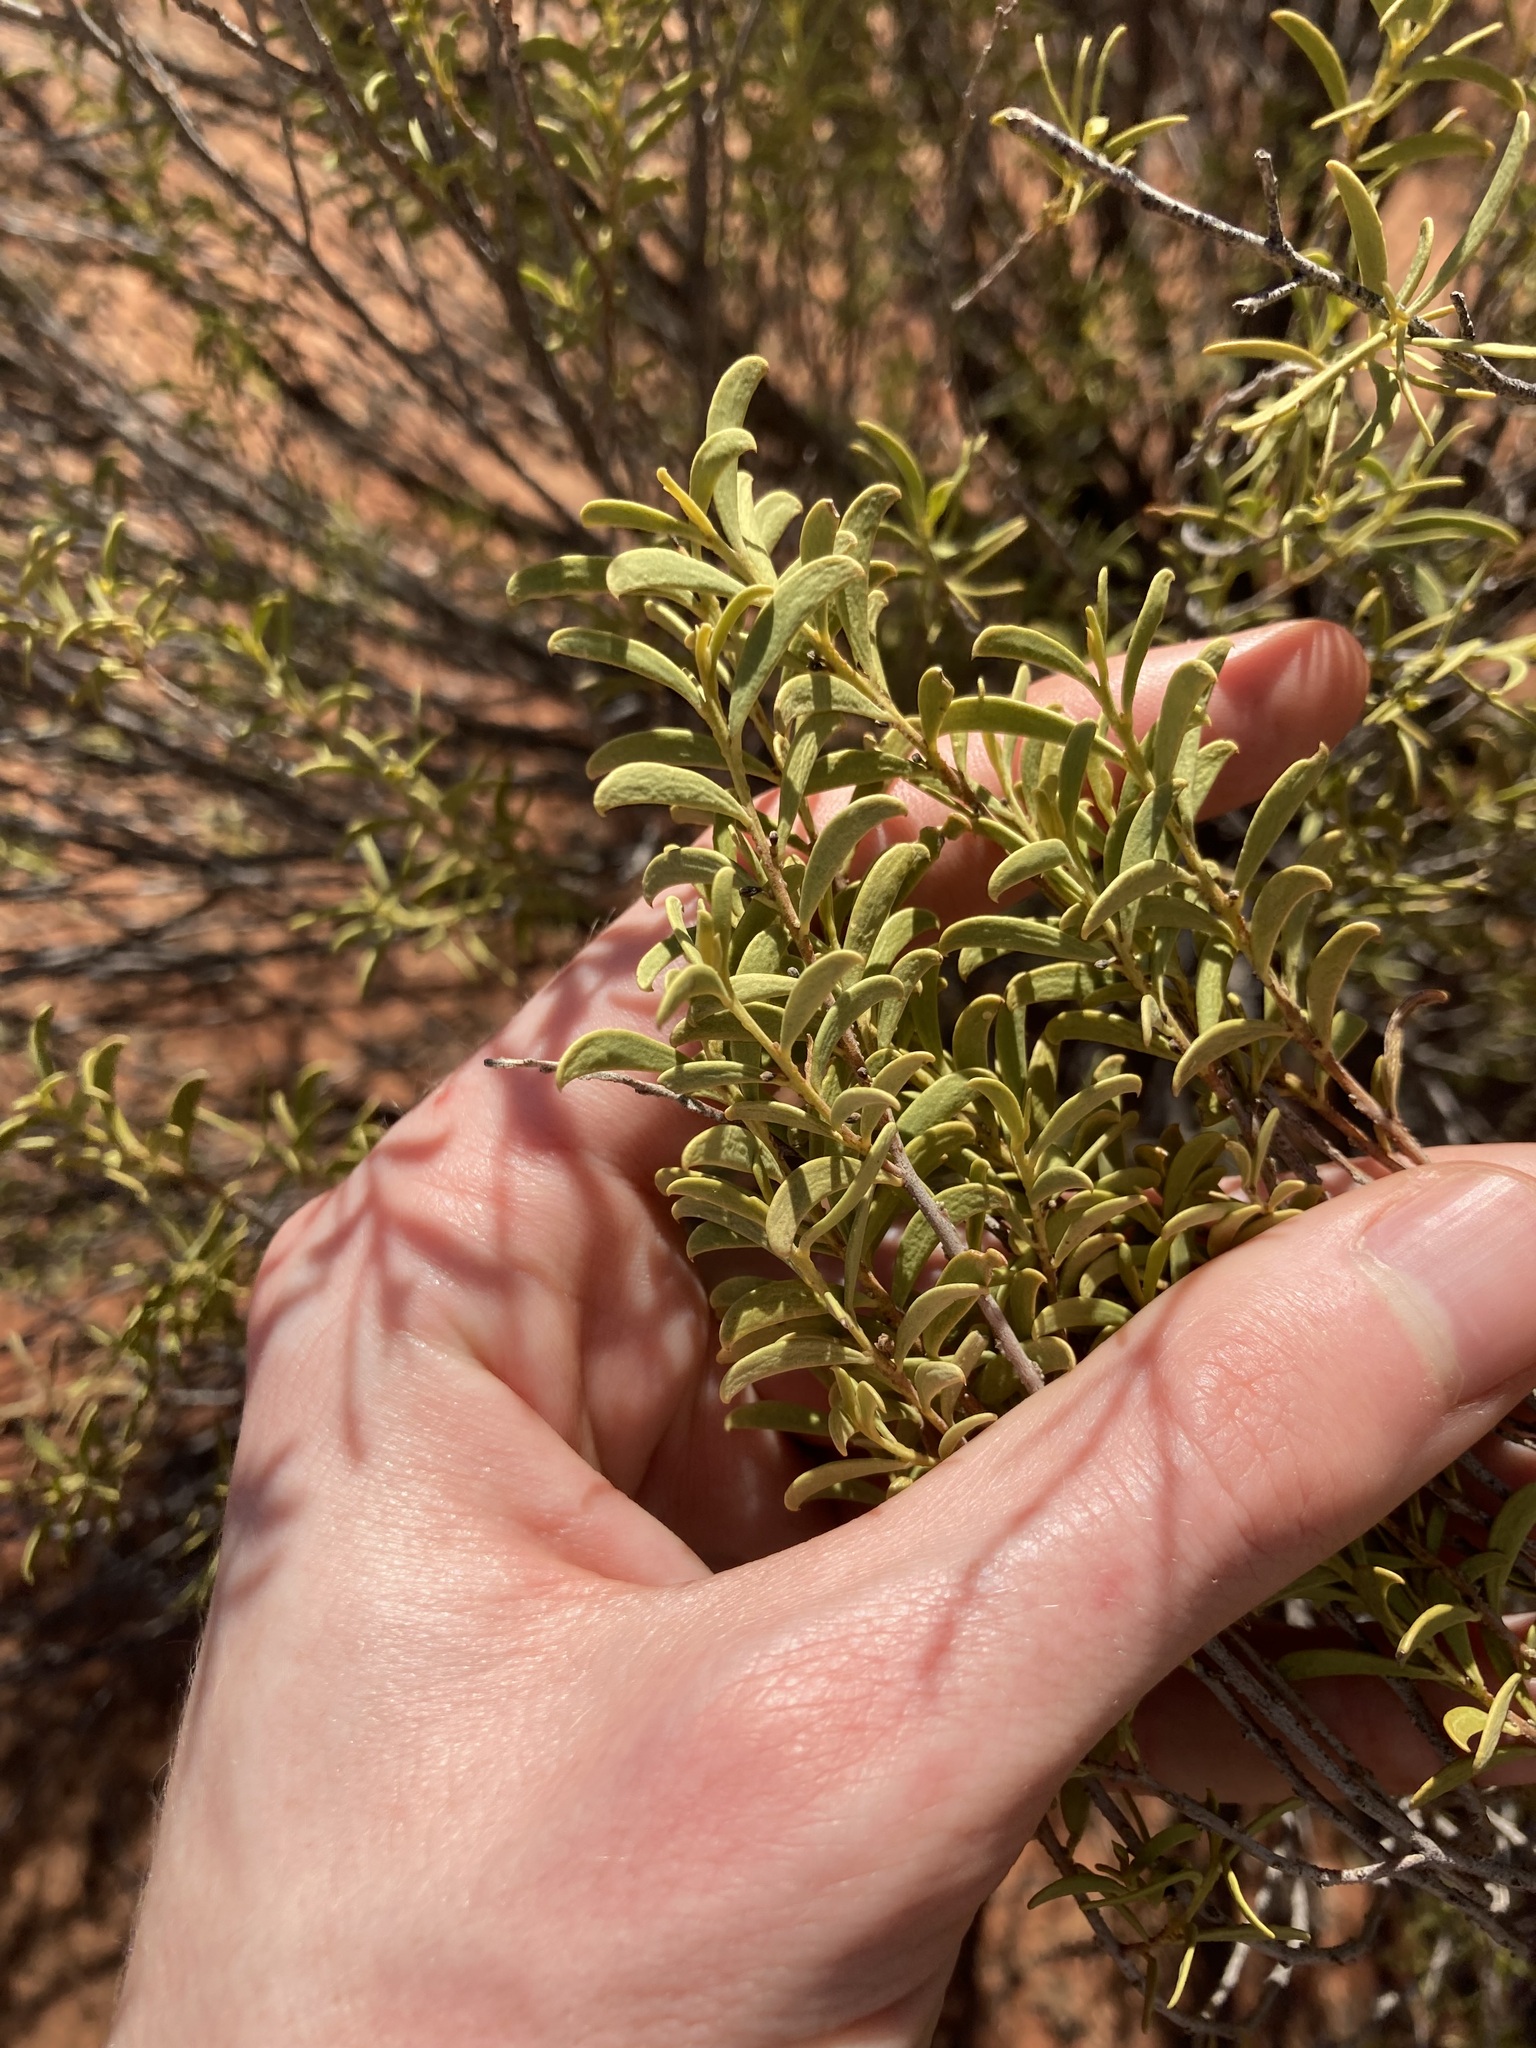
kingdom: Plantae
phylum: Tracheophyta
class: Magnoliopsida
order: Lamiales
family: Scrophulariaceae
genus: Eremophila
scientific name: Eremophila falcata
